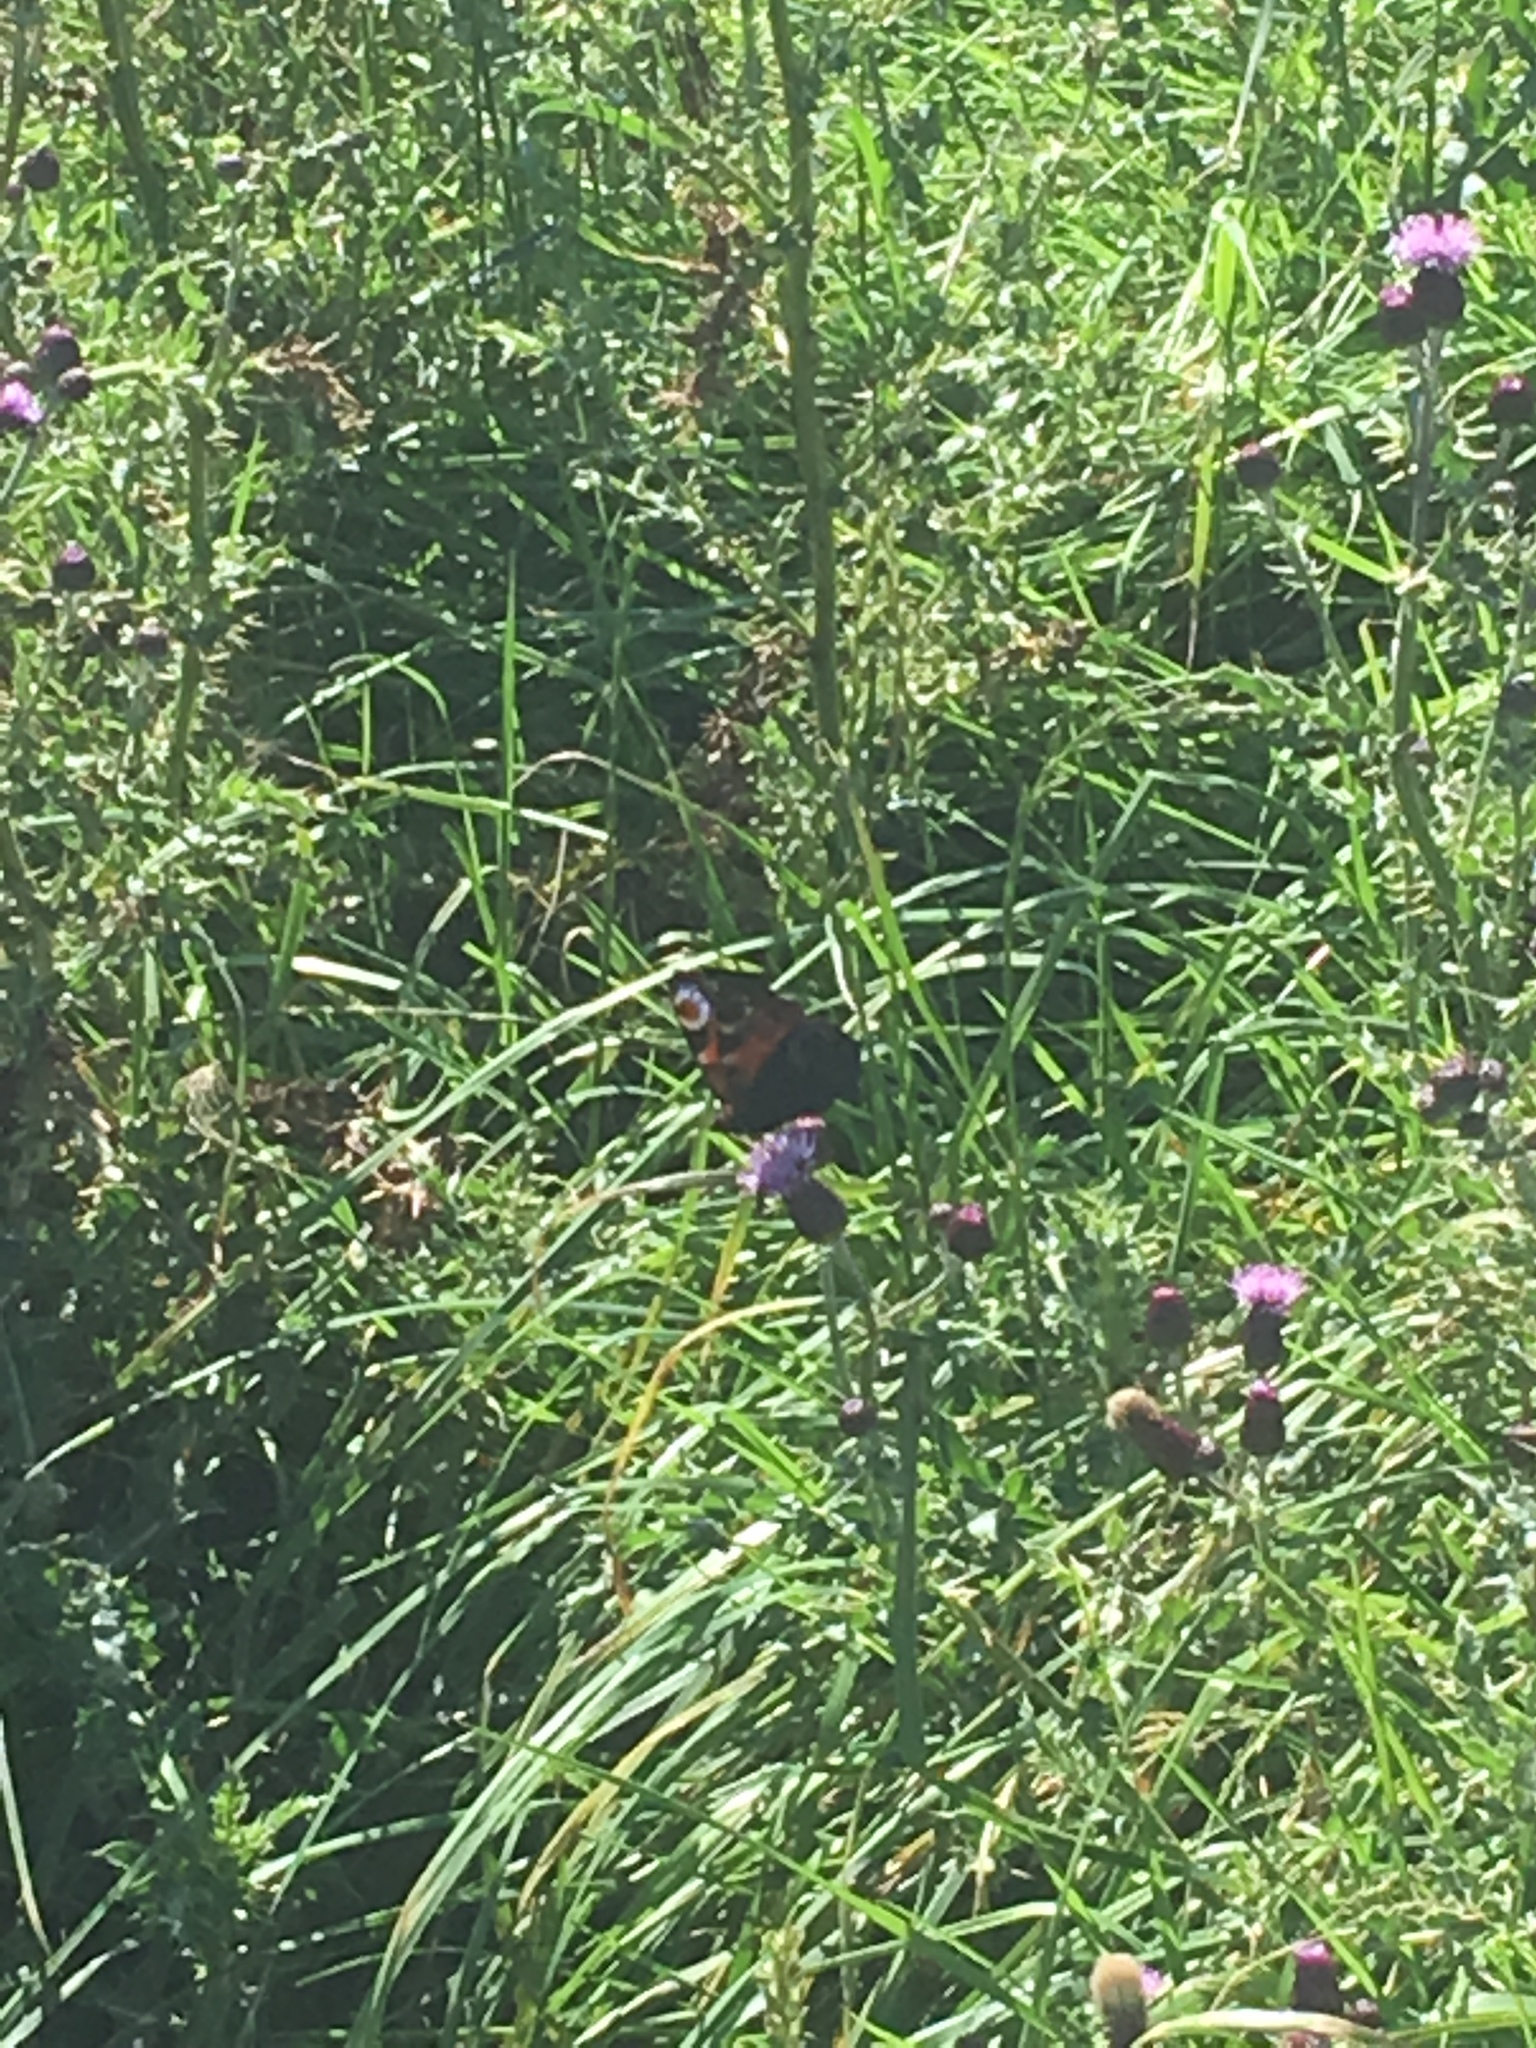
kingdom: Animalia
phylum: Arthropoda
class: Insecta
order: Lepidoptera
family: Nymphalidae
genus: Aglais
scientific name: Aglais io
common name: Peacock
